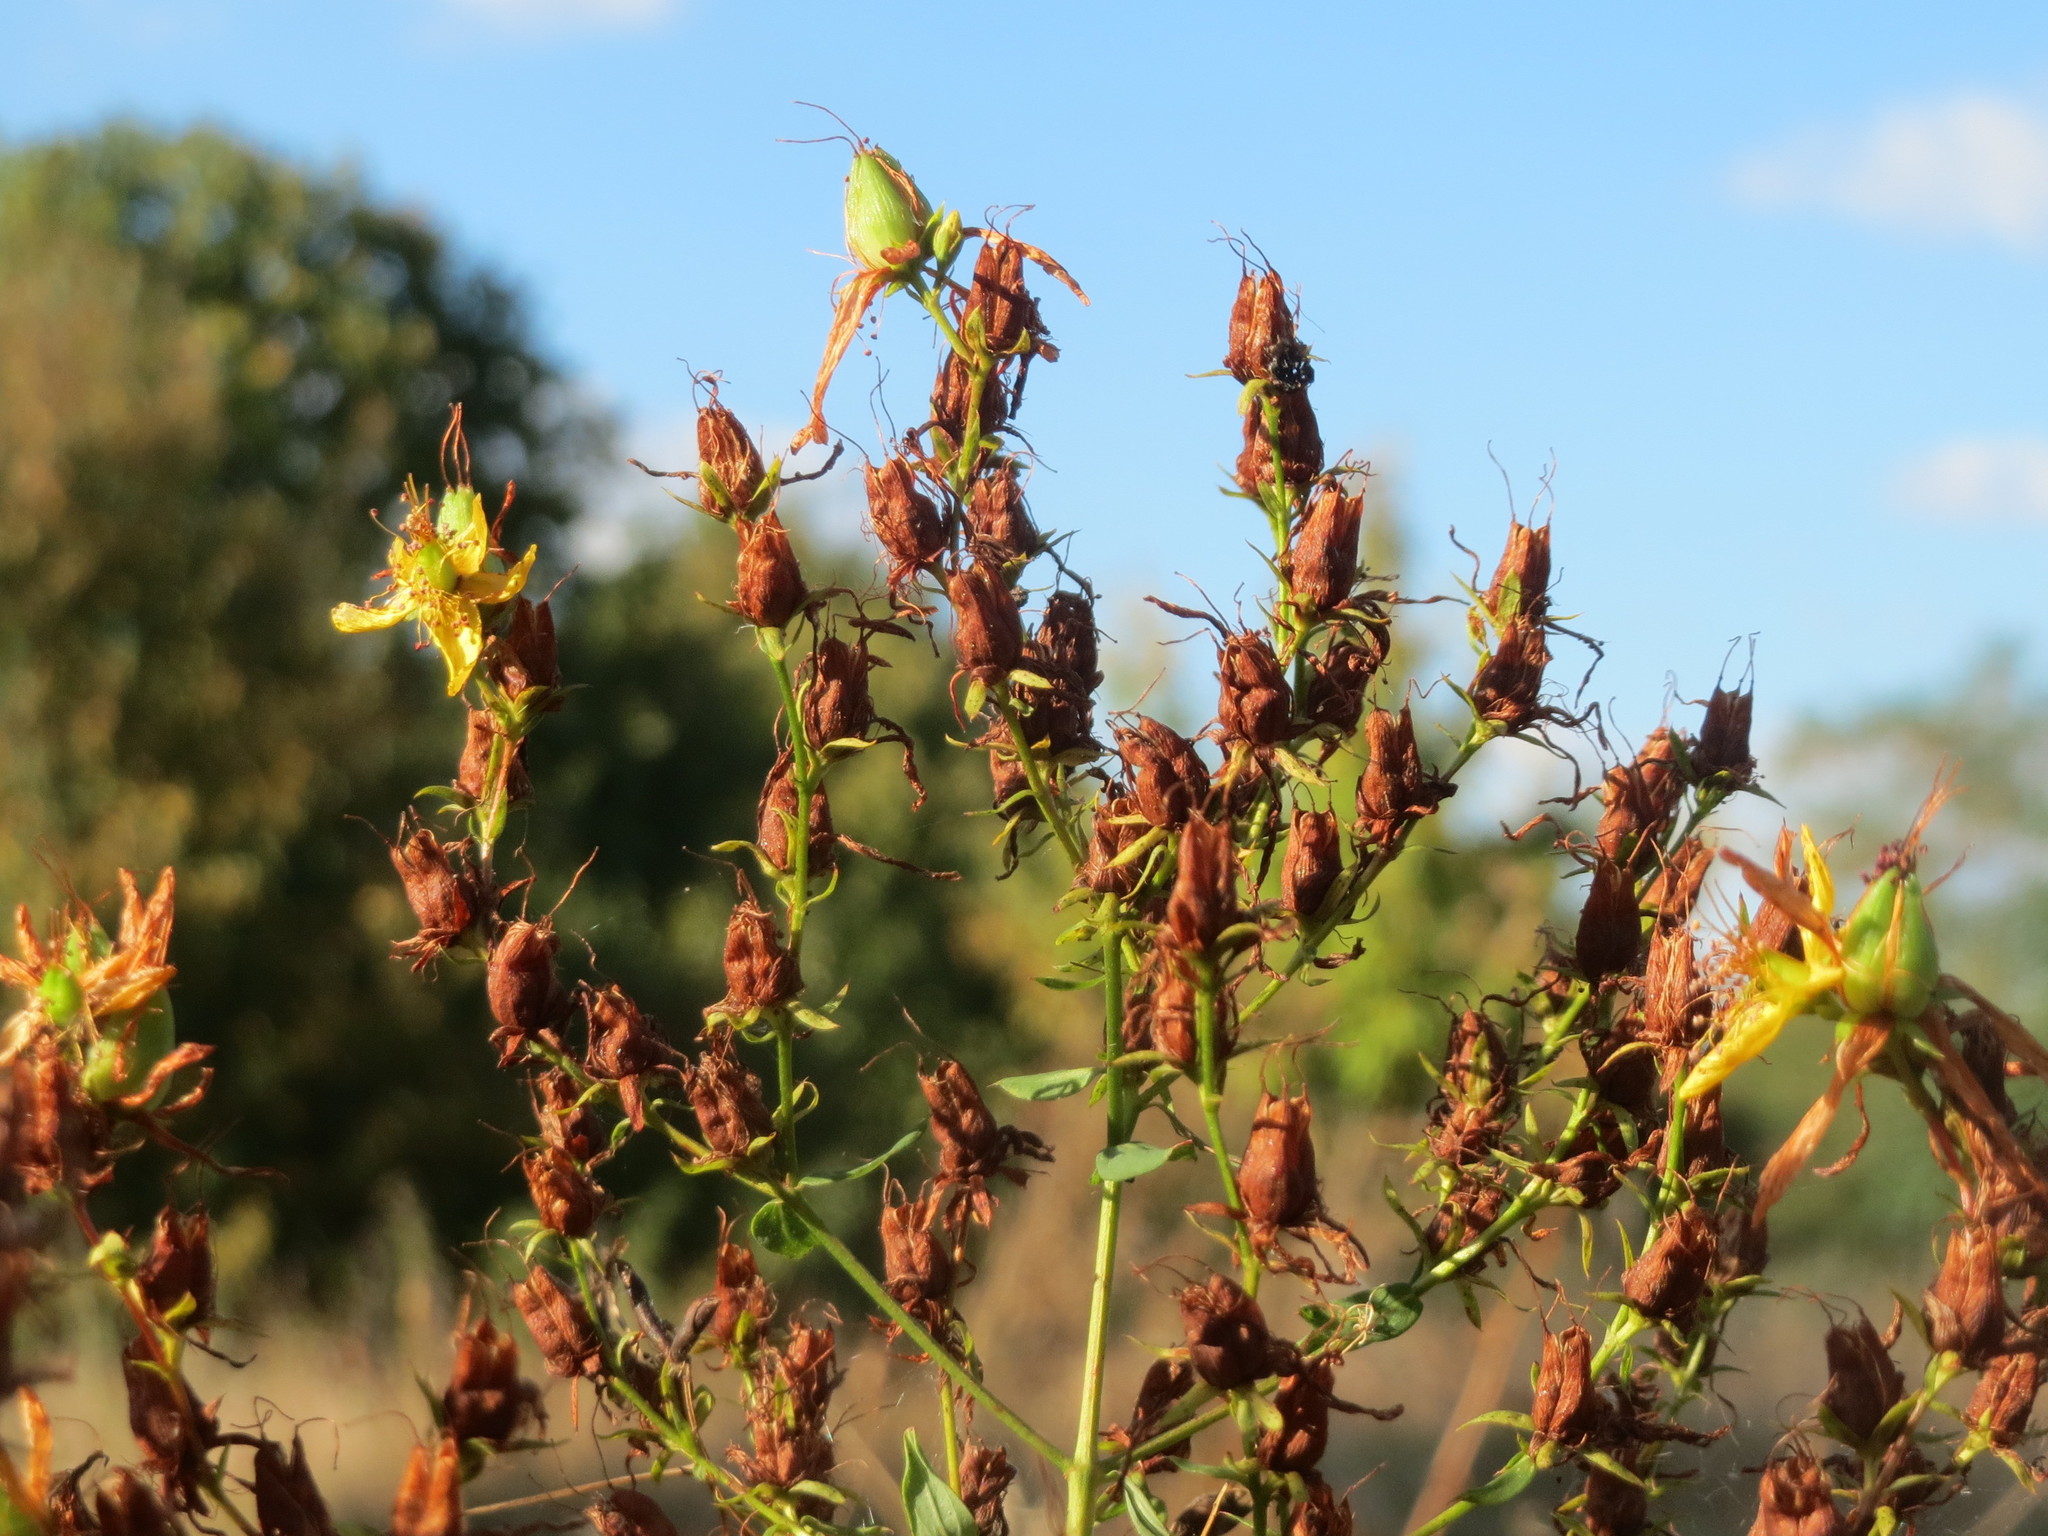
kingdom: Plantae
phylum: Tracheophyta
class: Magnoliopsida
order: Malpighiales
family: Hypericaceae
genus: Hypericum
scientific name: Hypericum perforatum
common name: Common st. johnswort
